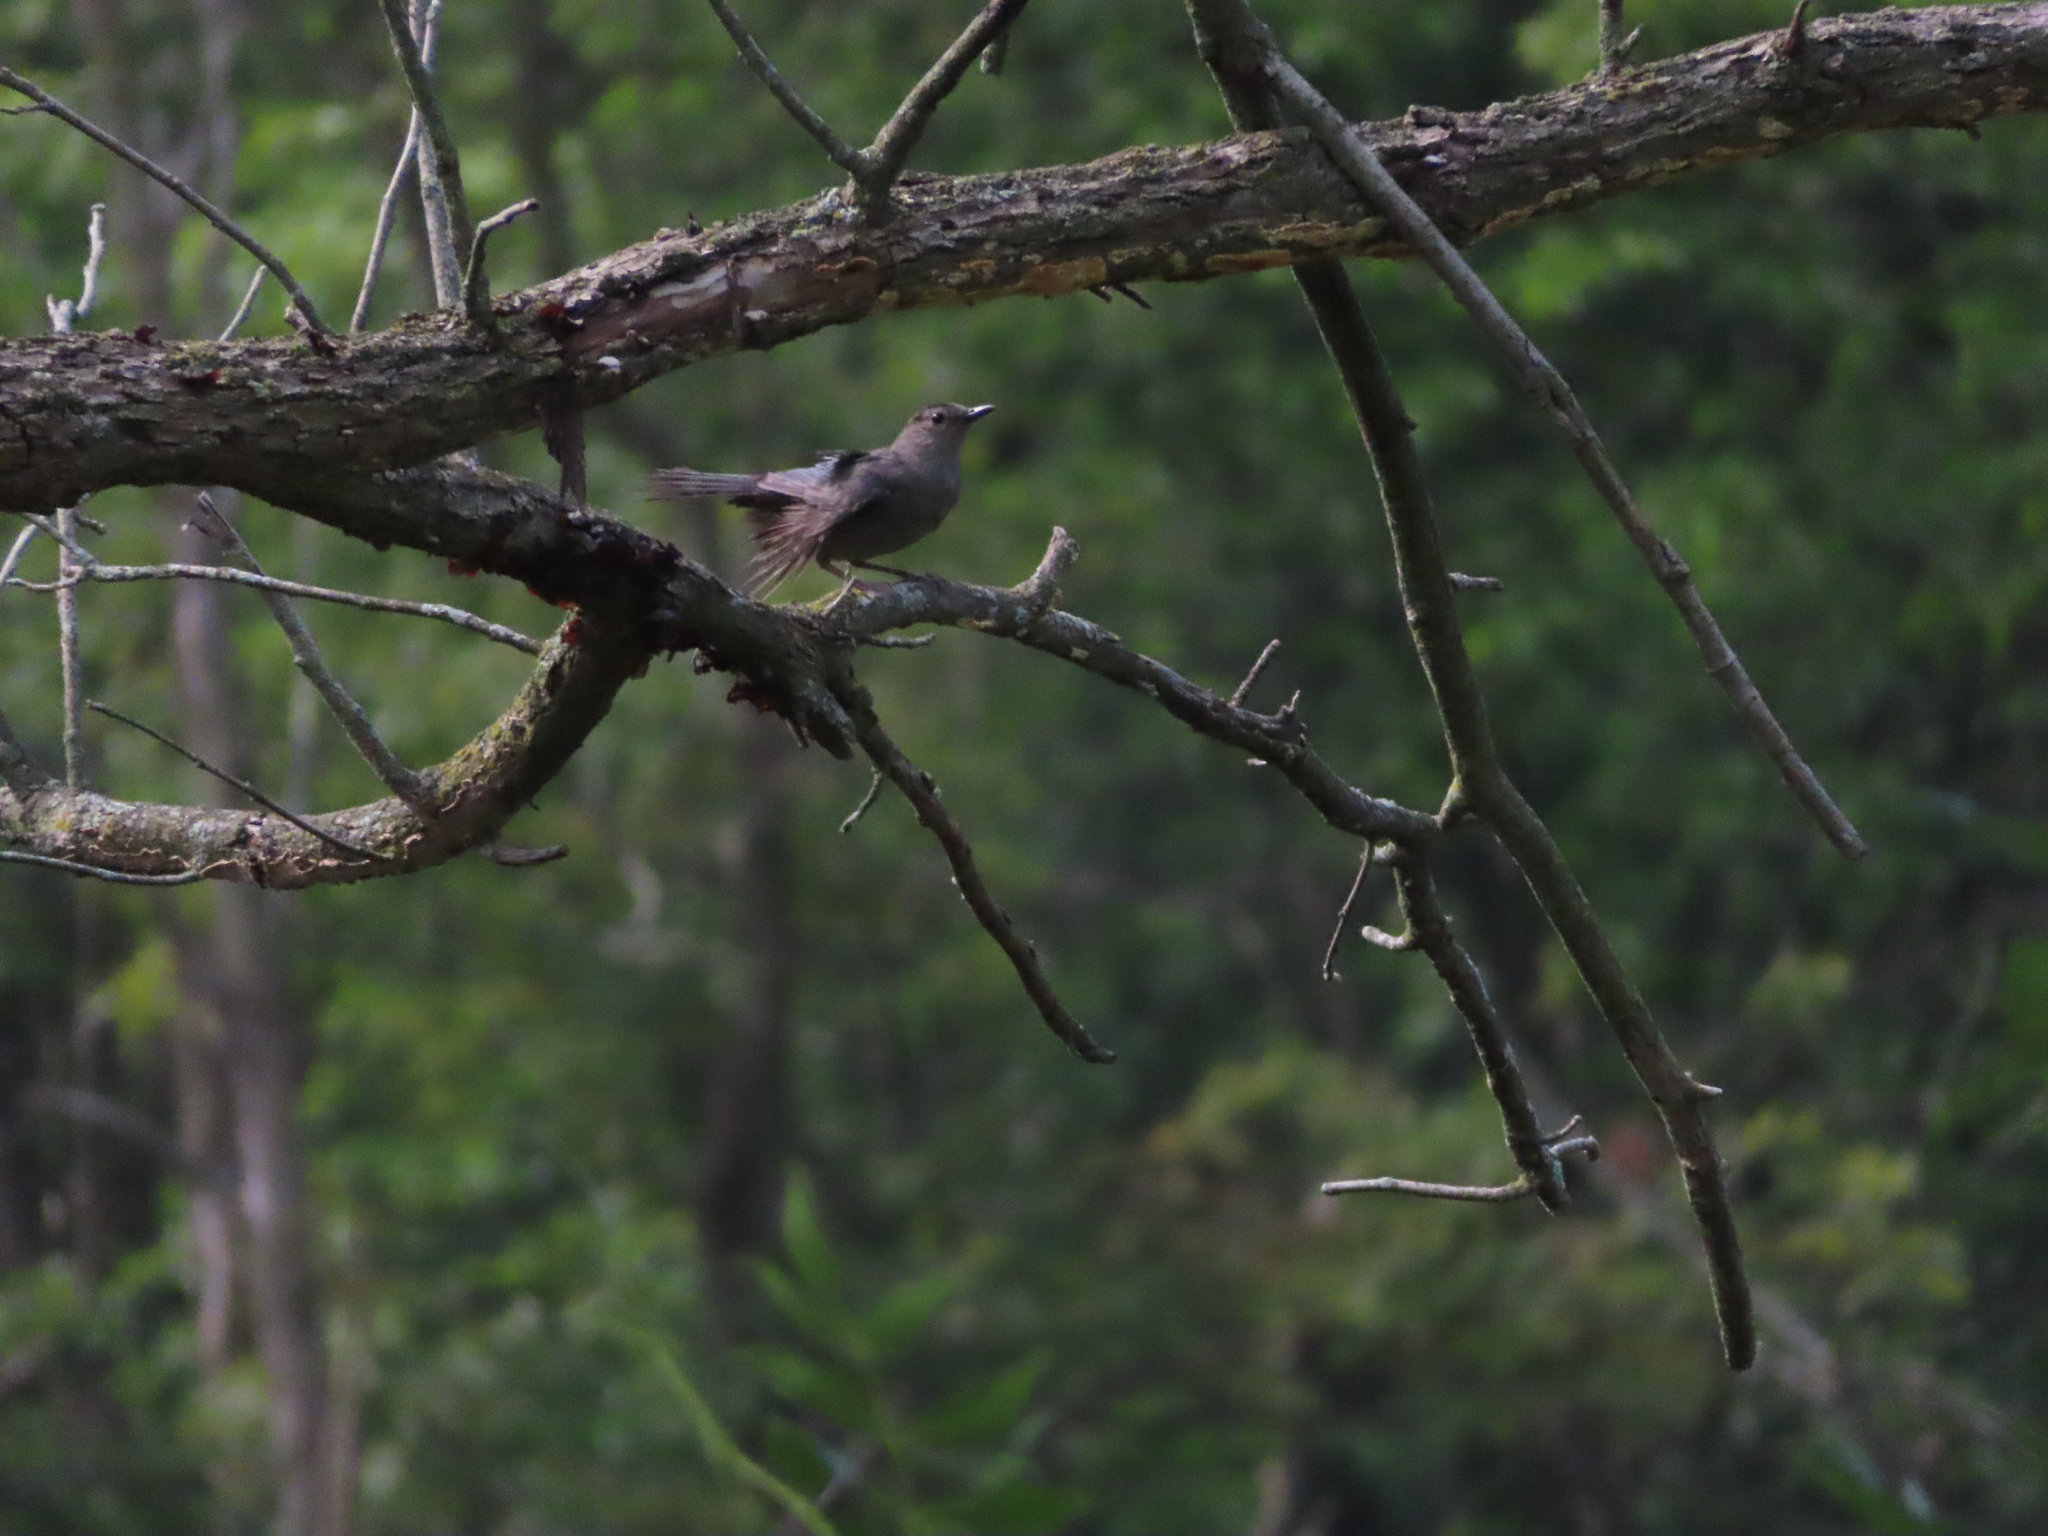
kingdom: Animalia
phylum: Chordata
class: Aves
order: Passeriformes
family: Mimidae
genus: Dumetella
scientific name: Dumetella carolinensis
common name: Gray catbird
